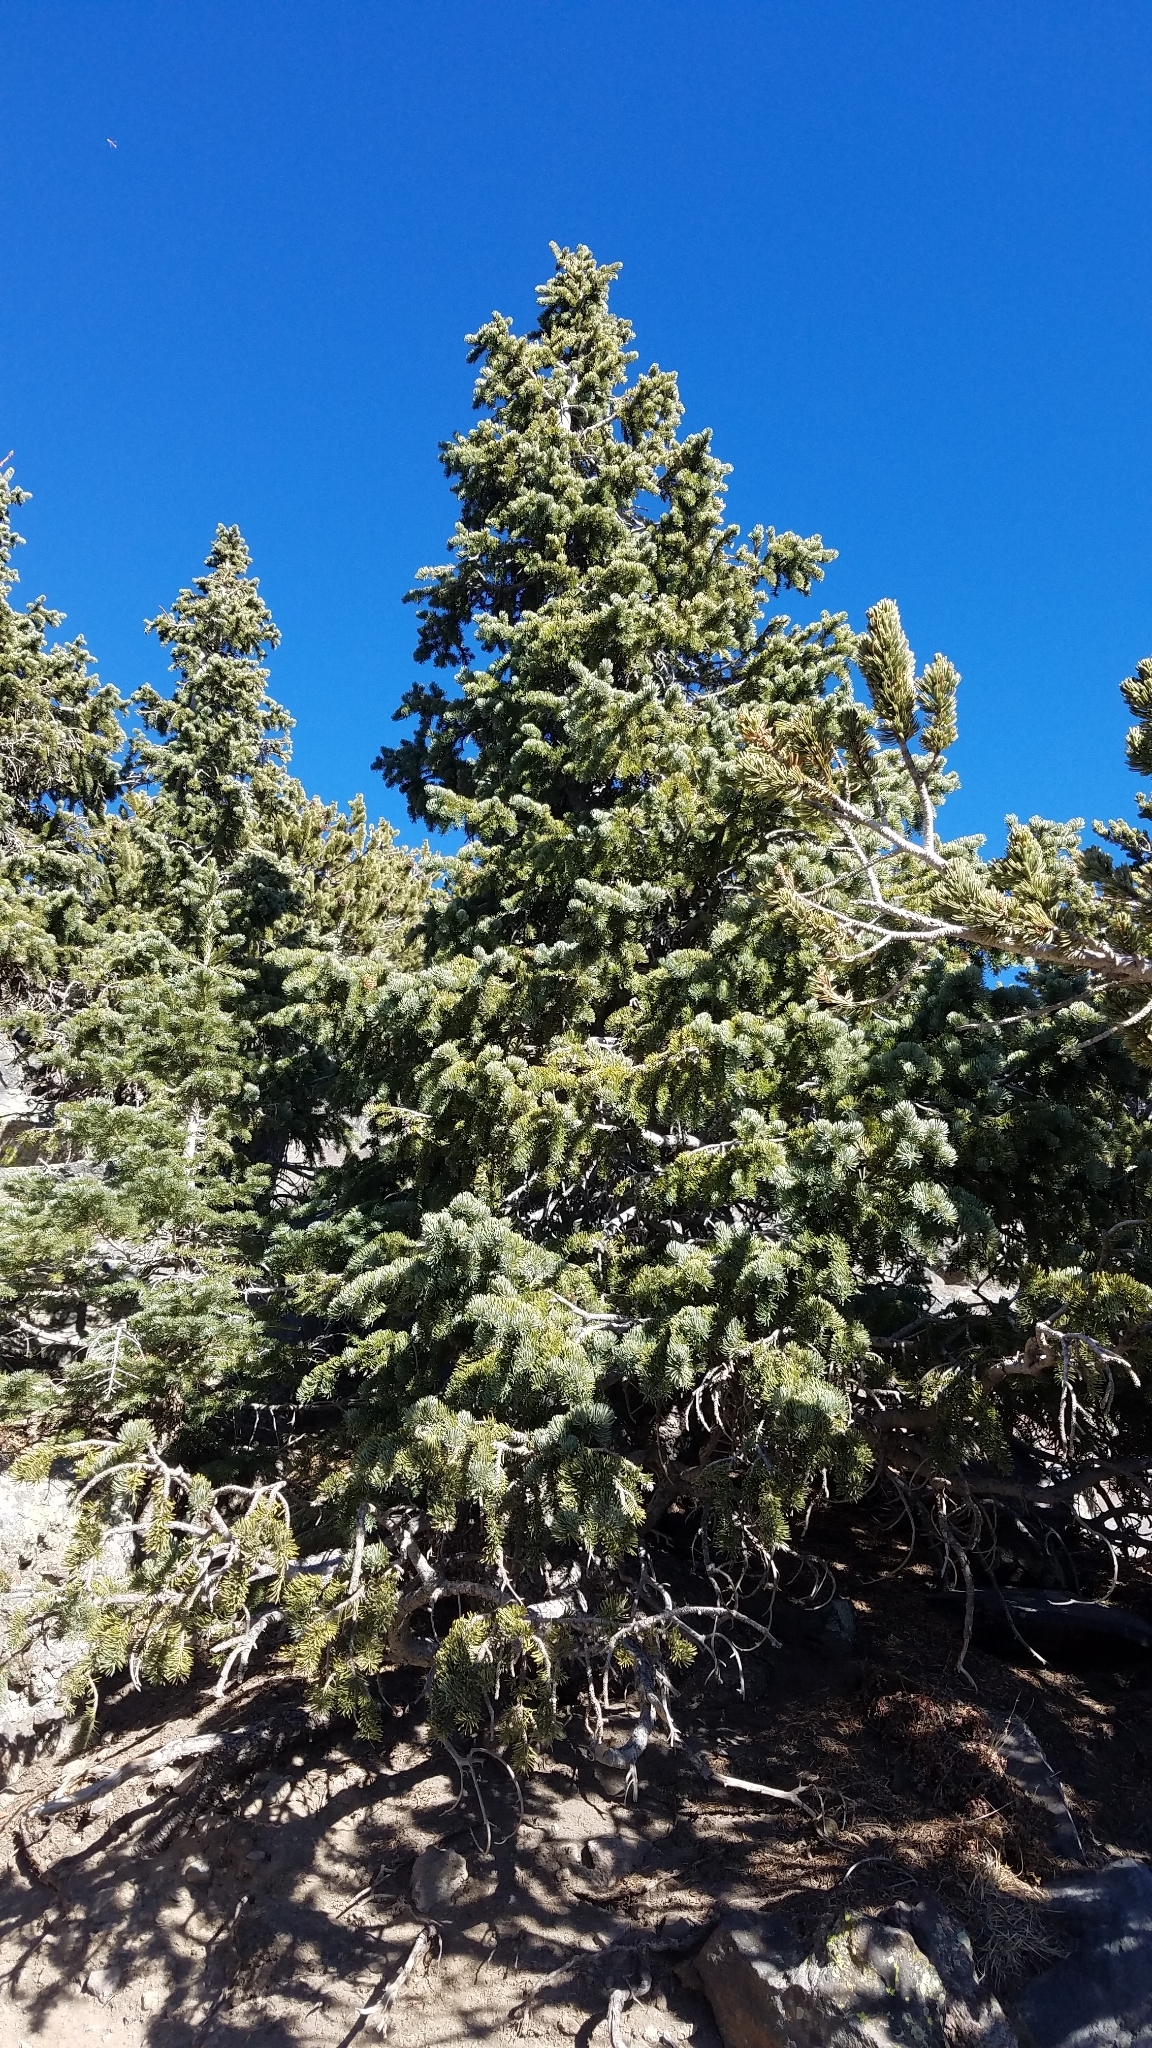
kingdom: Plantae
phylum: Tracheophyta
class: Pinopsida
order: Pinales
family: Pinaceae
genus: Abies
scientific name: Abies lasiocarpa
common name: Subalpine fir
